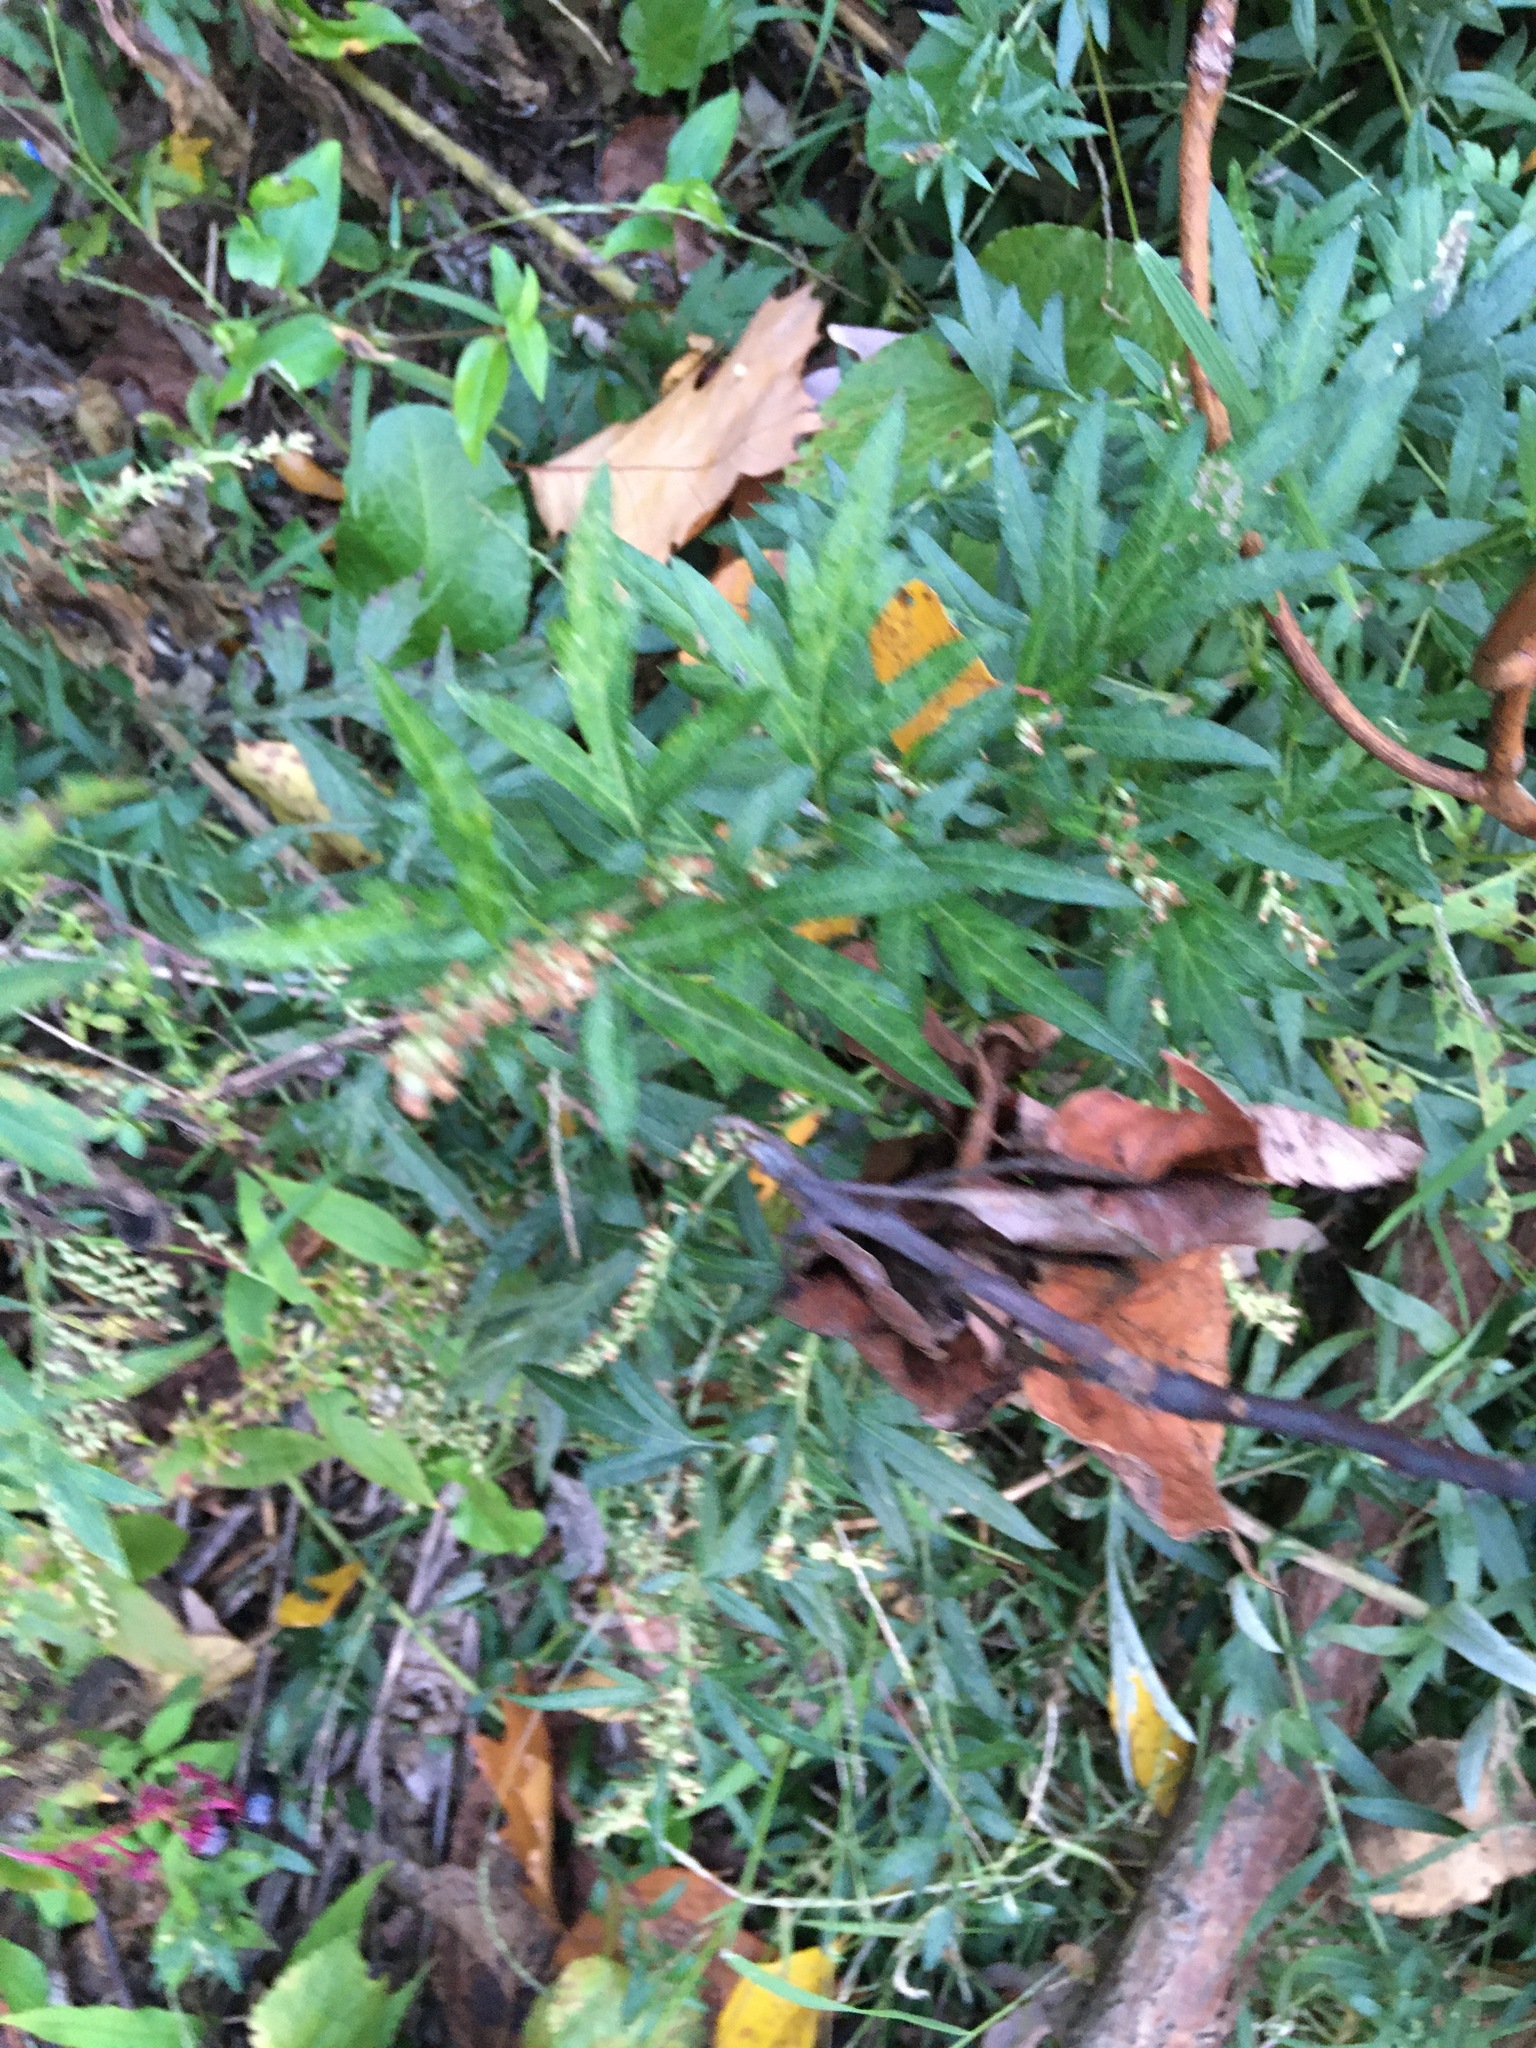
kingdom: Plantae
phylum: Tracheophyta
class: Magnoliopsida
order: Asterales
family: Asteraceae
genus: Artemisia
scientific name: Artemisia vulgaris
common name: Mugwort
